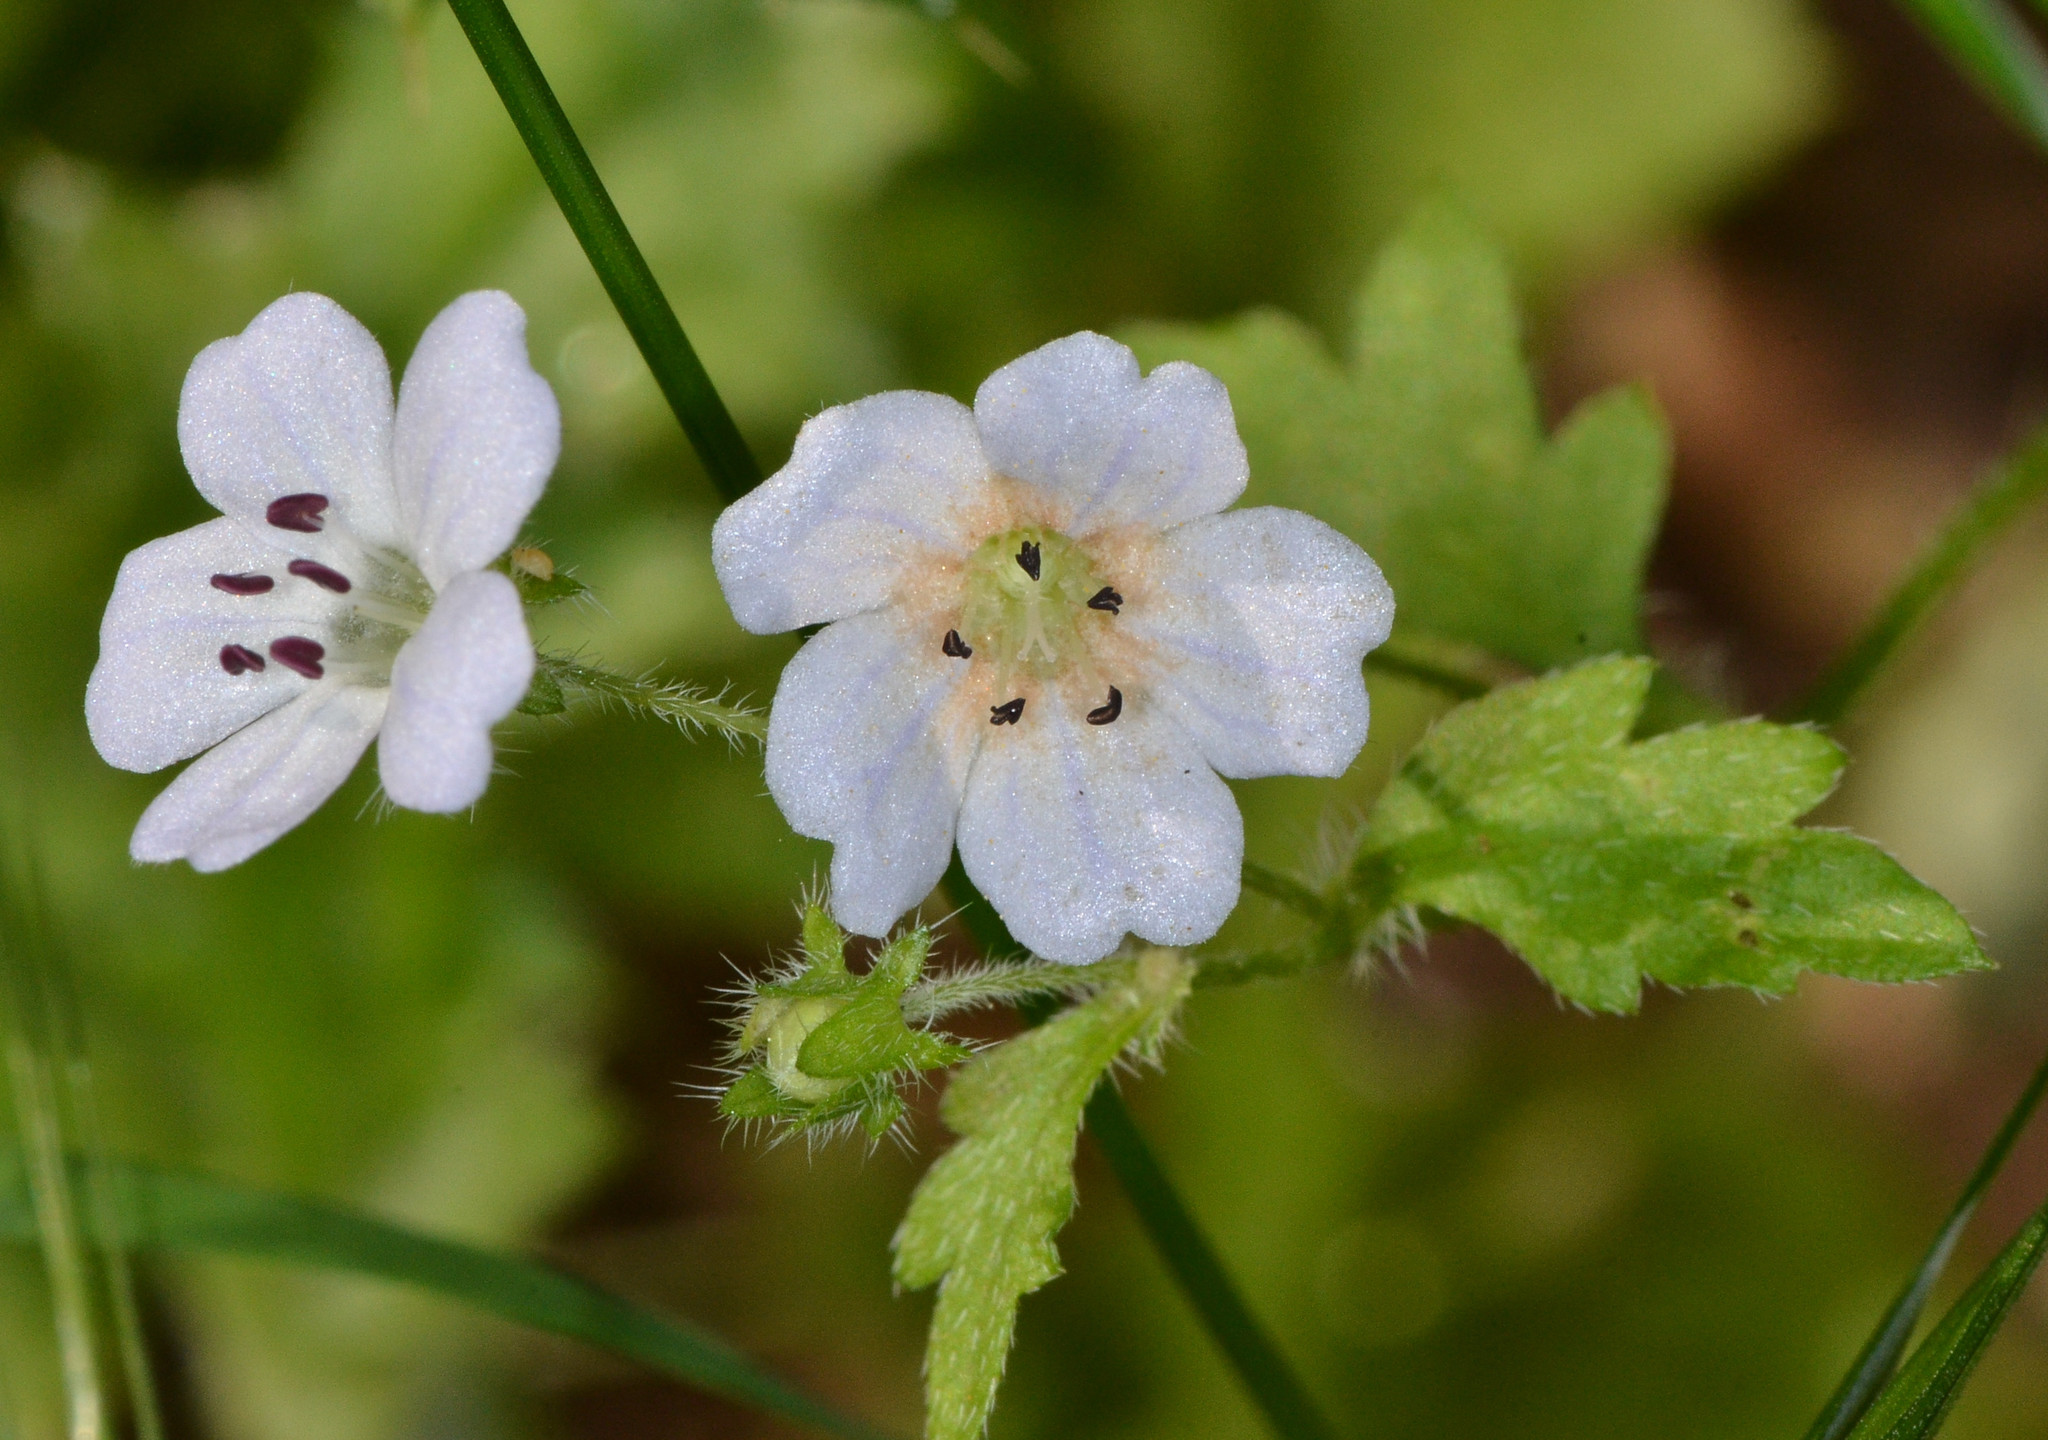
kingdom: Plantae
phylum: Tracheophyta
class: Magnoliopsida
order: Boraginales
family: Hydrophyllaceae
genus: Nemophila
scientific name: Nemophila heterophylla
